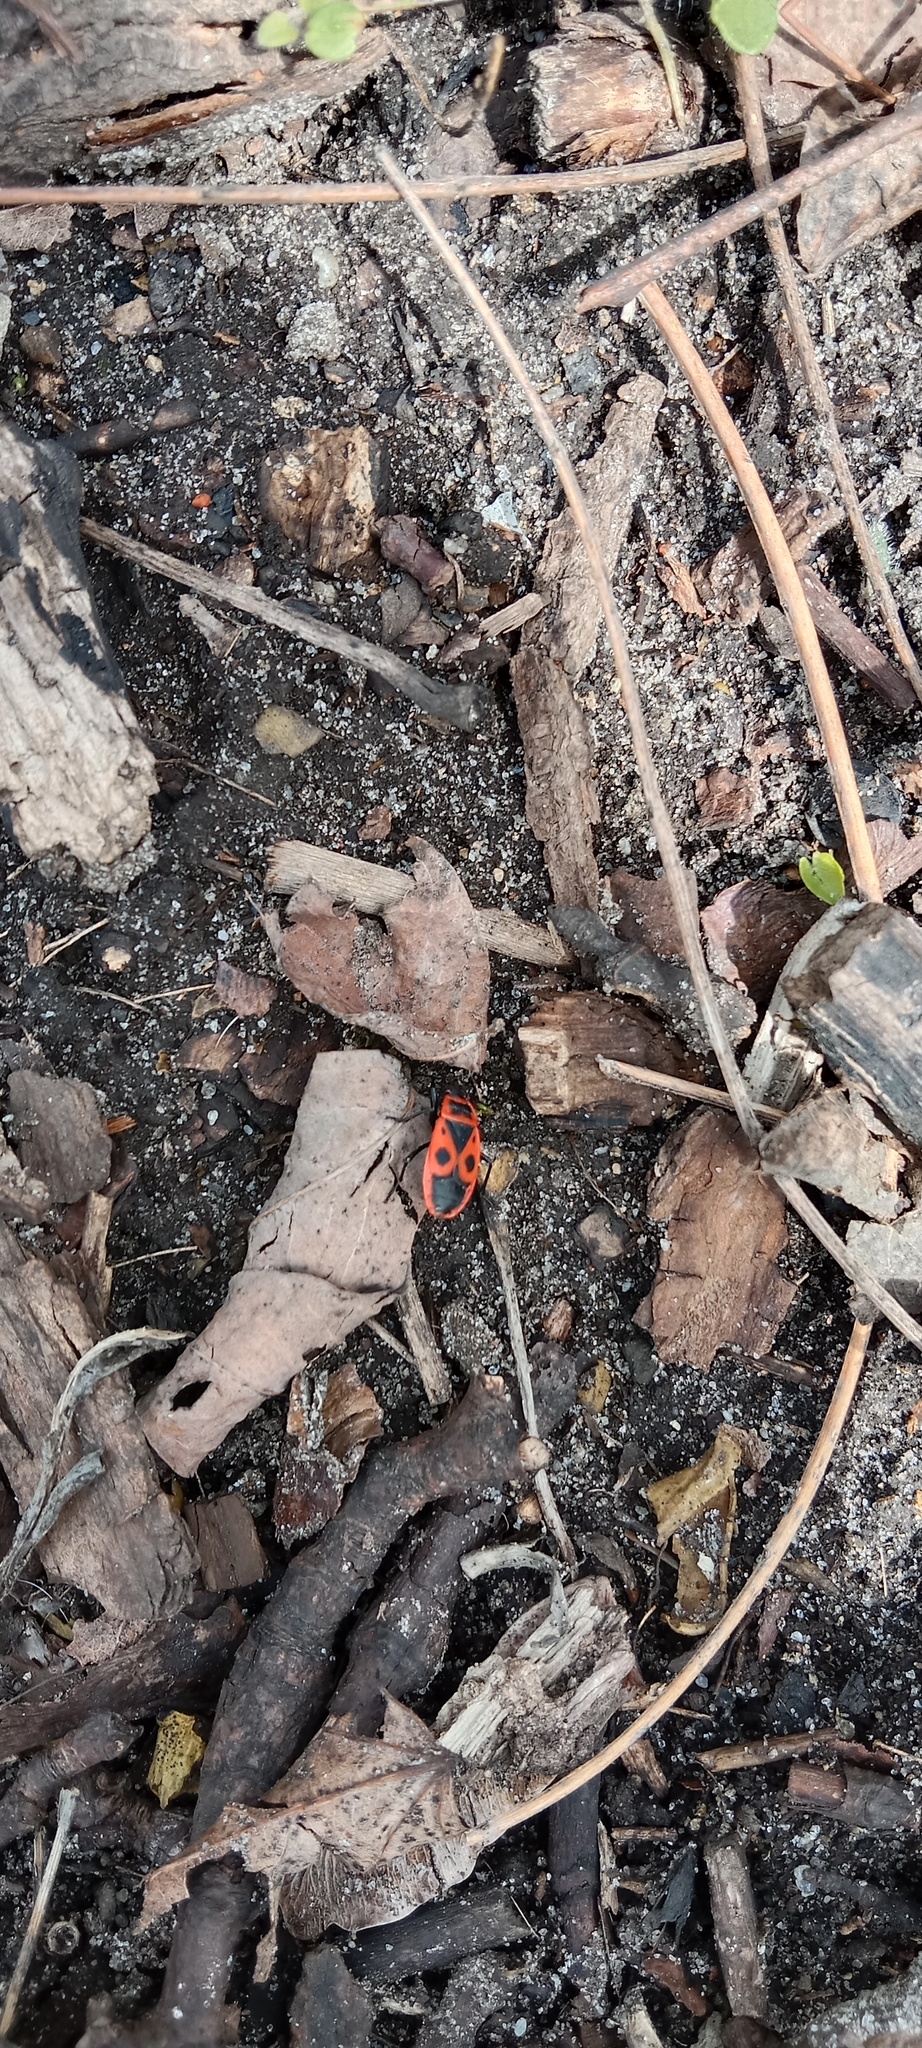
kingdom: Animalia
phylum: Arthropoda
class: Insecta
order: Hemiptera
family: Pyrrhocoridae
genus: Pyrrhocoris
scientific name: Pyrrhocoris apterus
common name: Firebug
